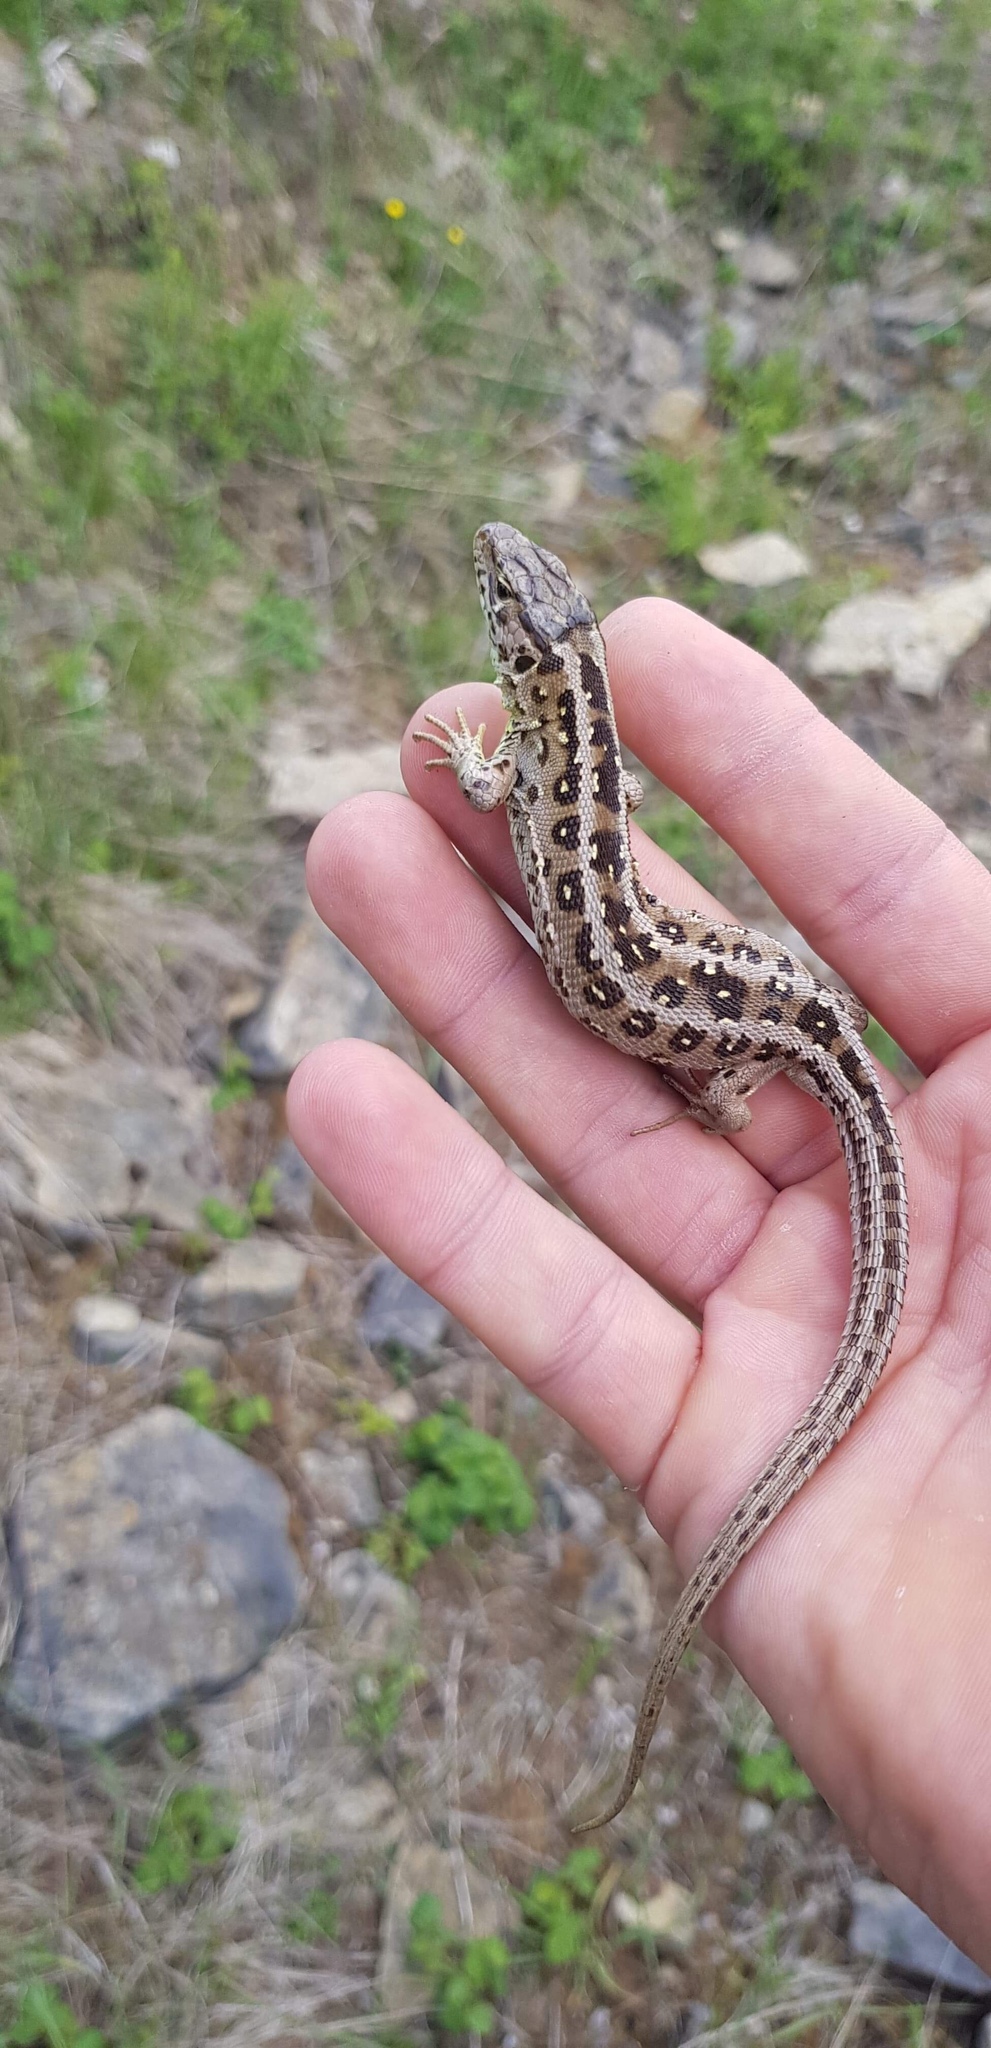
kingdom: Animalia
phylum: Chordata
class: Squamata
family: Lacertidae
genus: Lacerta
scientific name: Lacerta agilis
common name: Sand lizard
